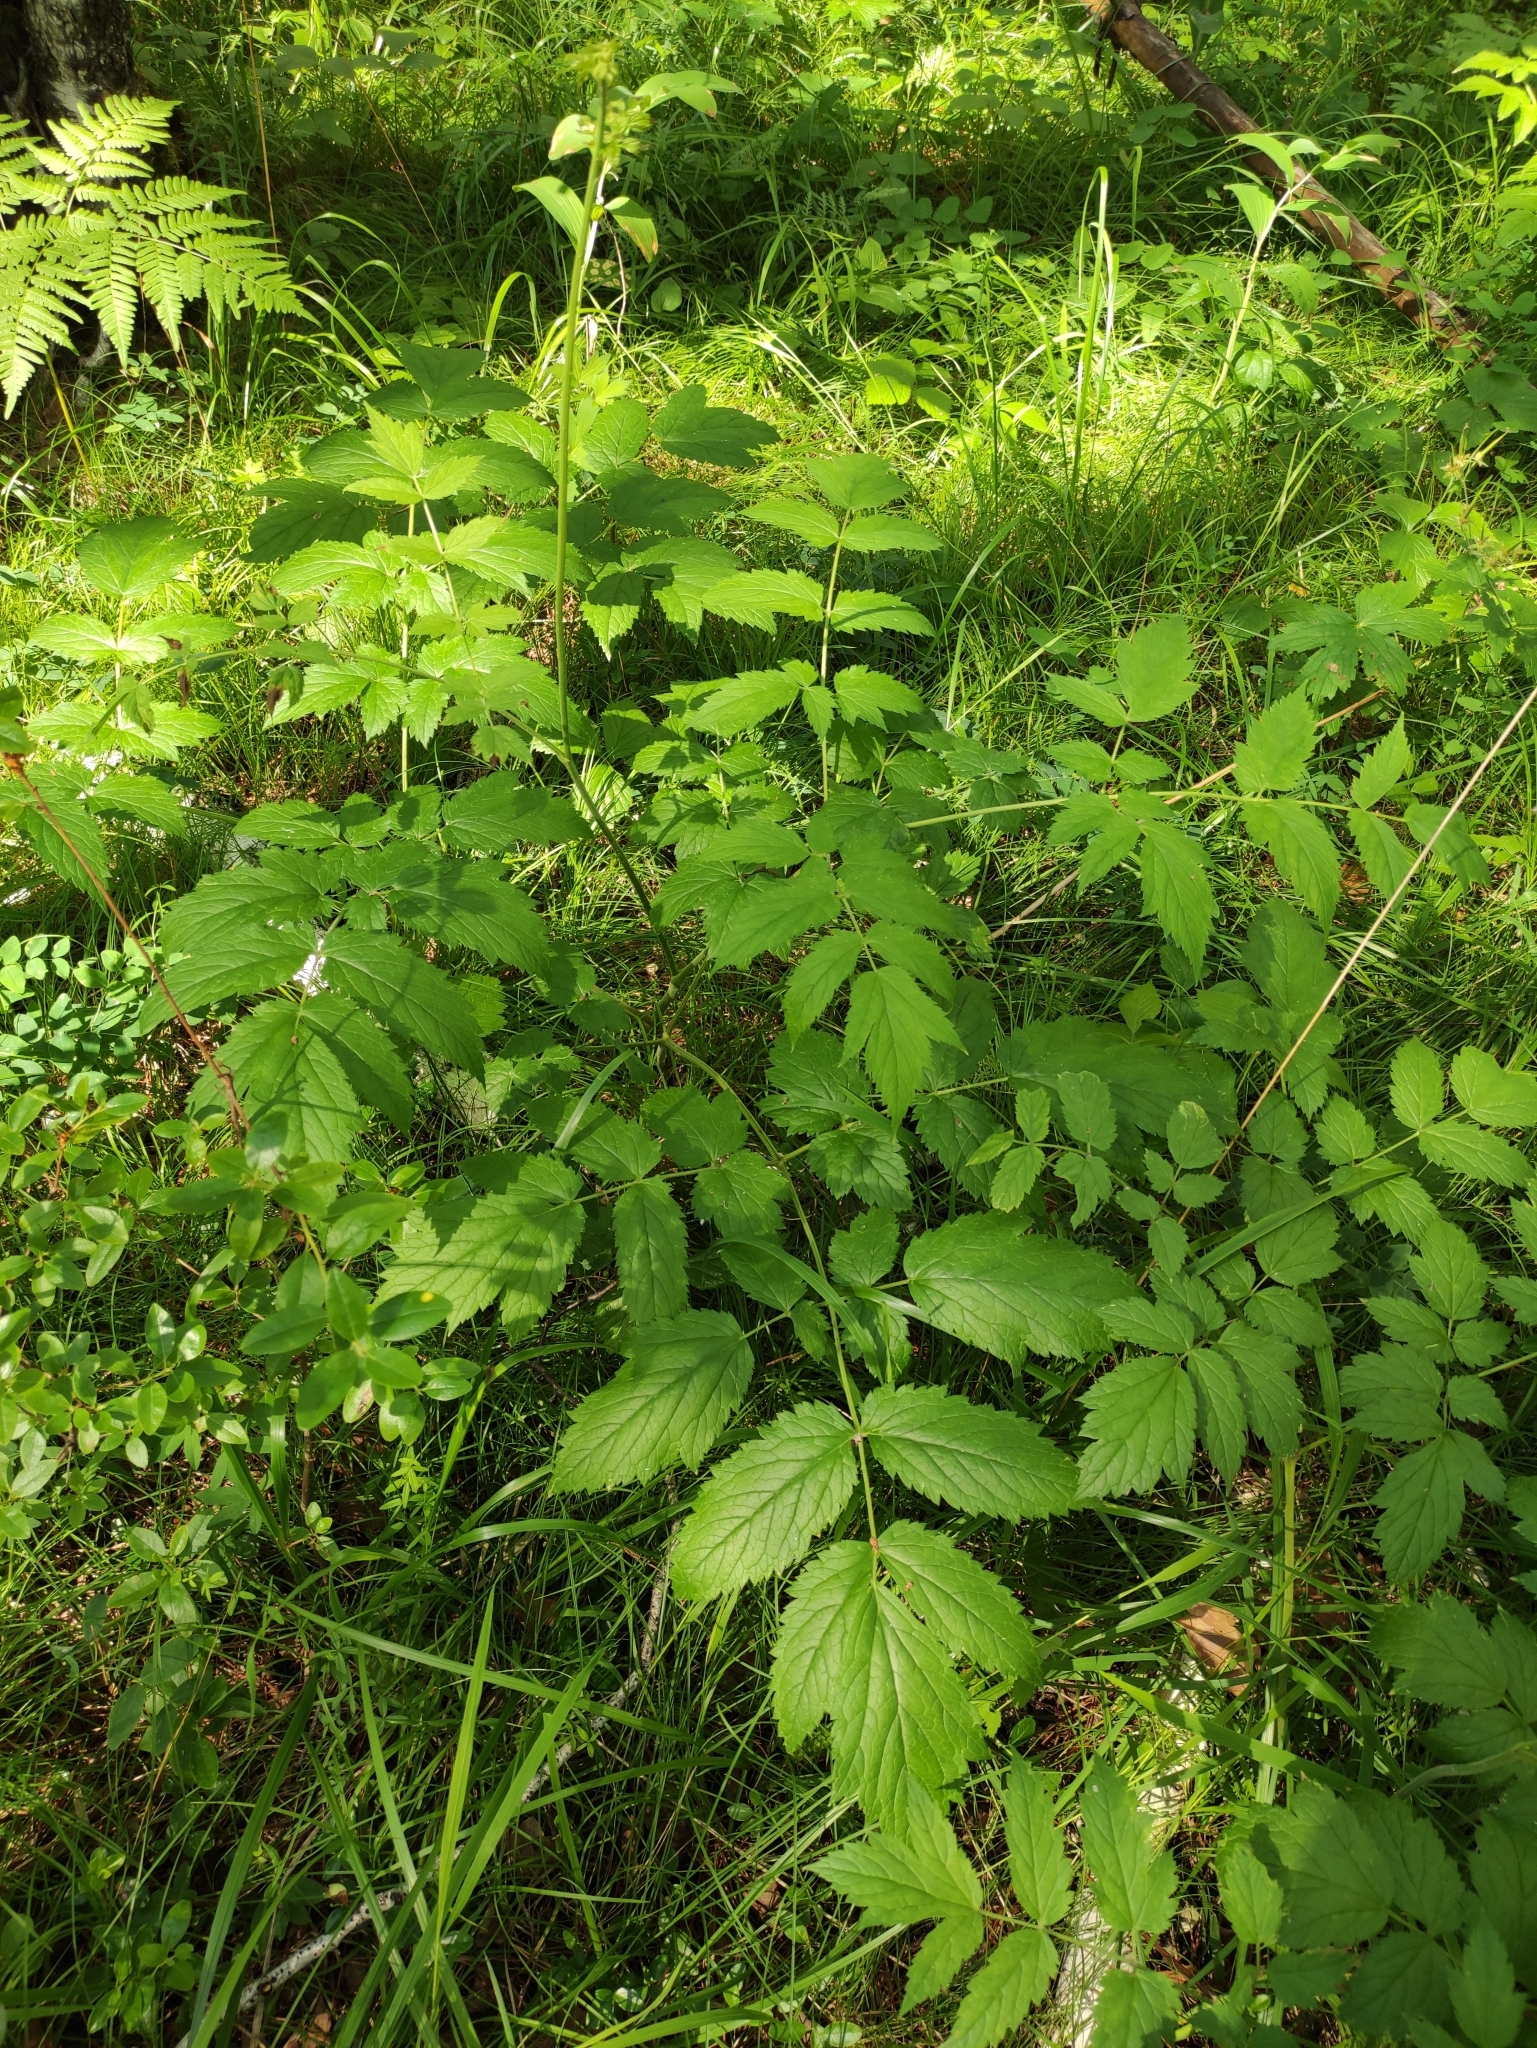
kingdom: Plantae
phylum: Tracheophyta
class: Magnoliopsida
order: Ranunculales
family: Ranunculaceae
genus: Actaea
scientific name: Actaea cimicifuga
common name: Chinese cimicifuga
